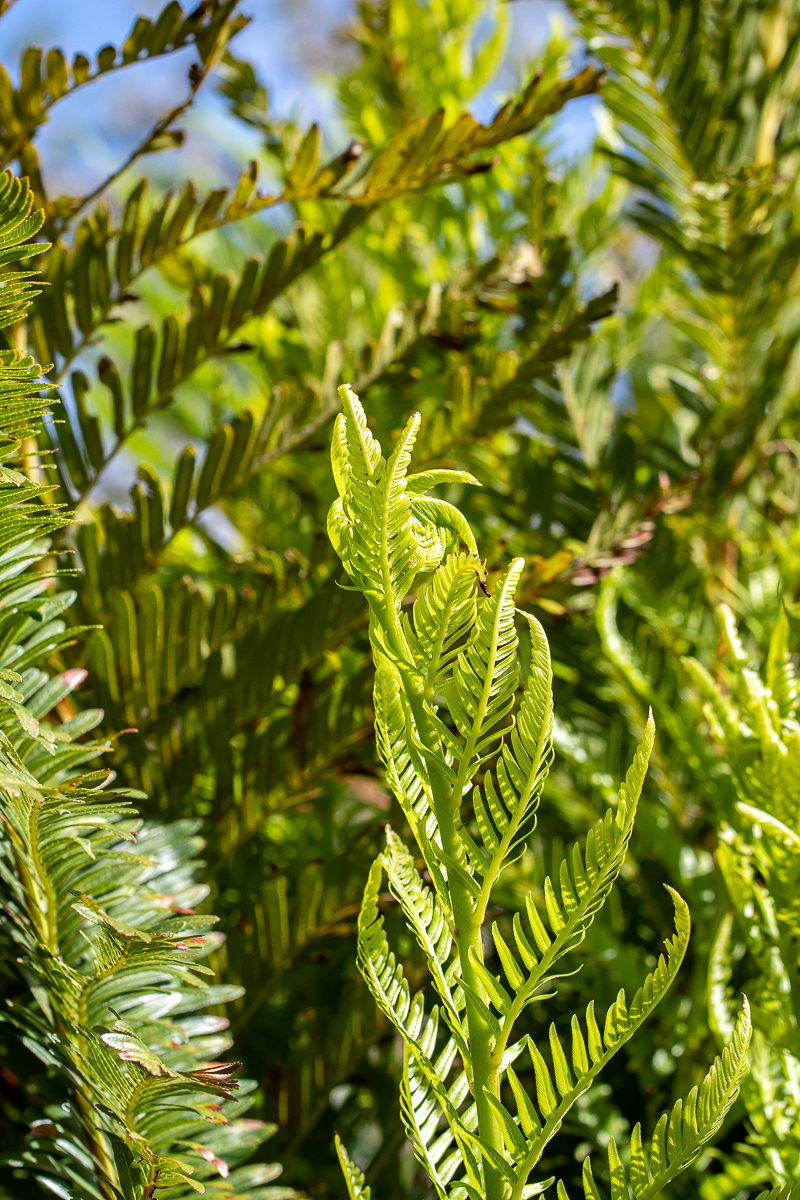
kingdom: Plantae
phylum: Tracheophyta
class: Polypodiopsida
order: Osmundales
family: Osmundaceae
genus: Todea
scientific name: Todea barbara
